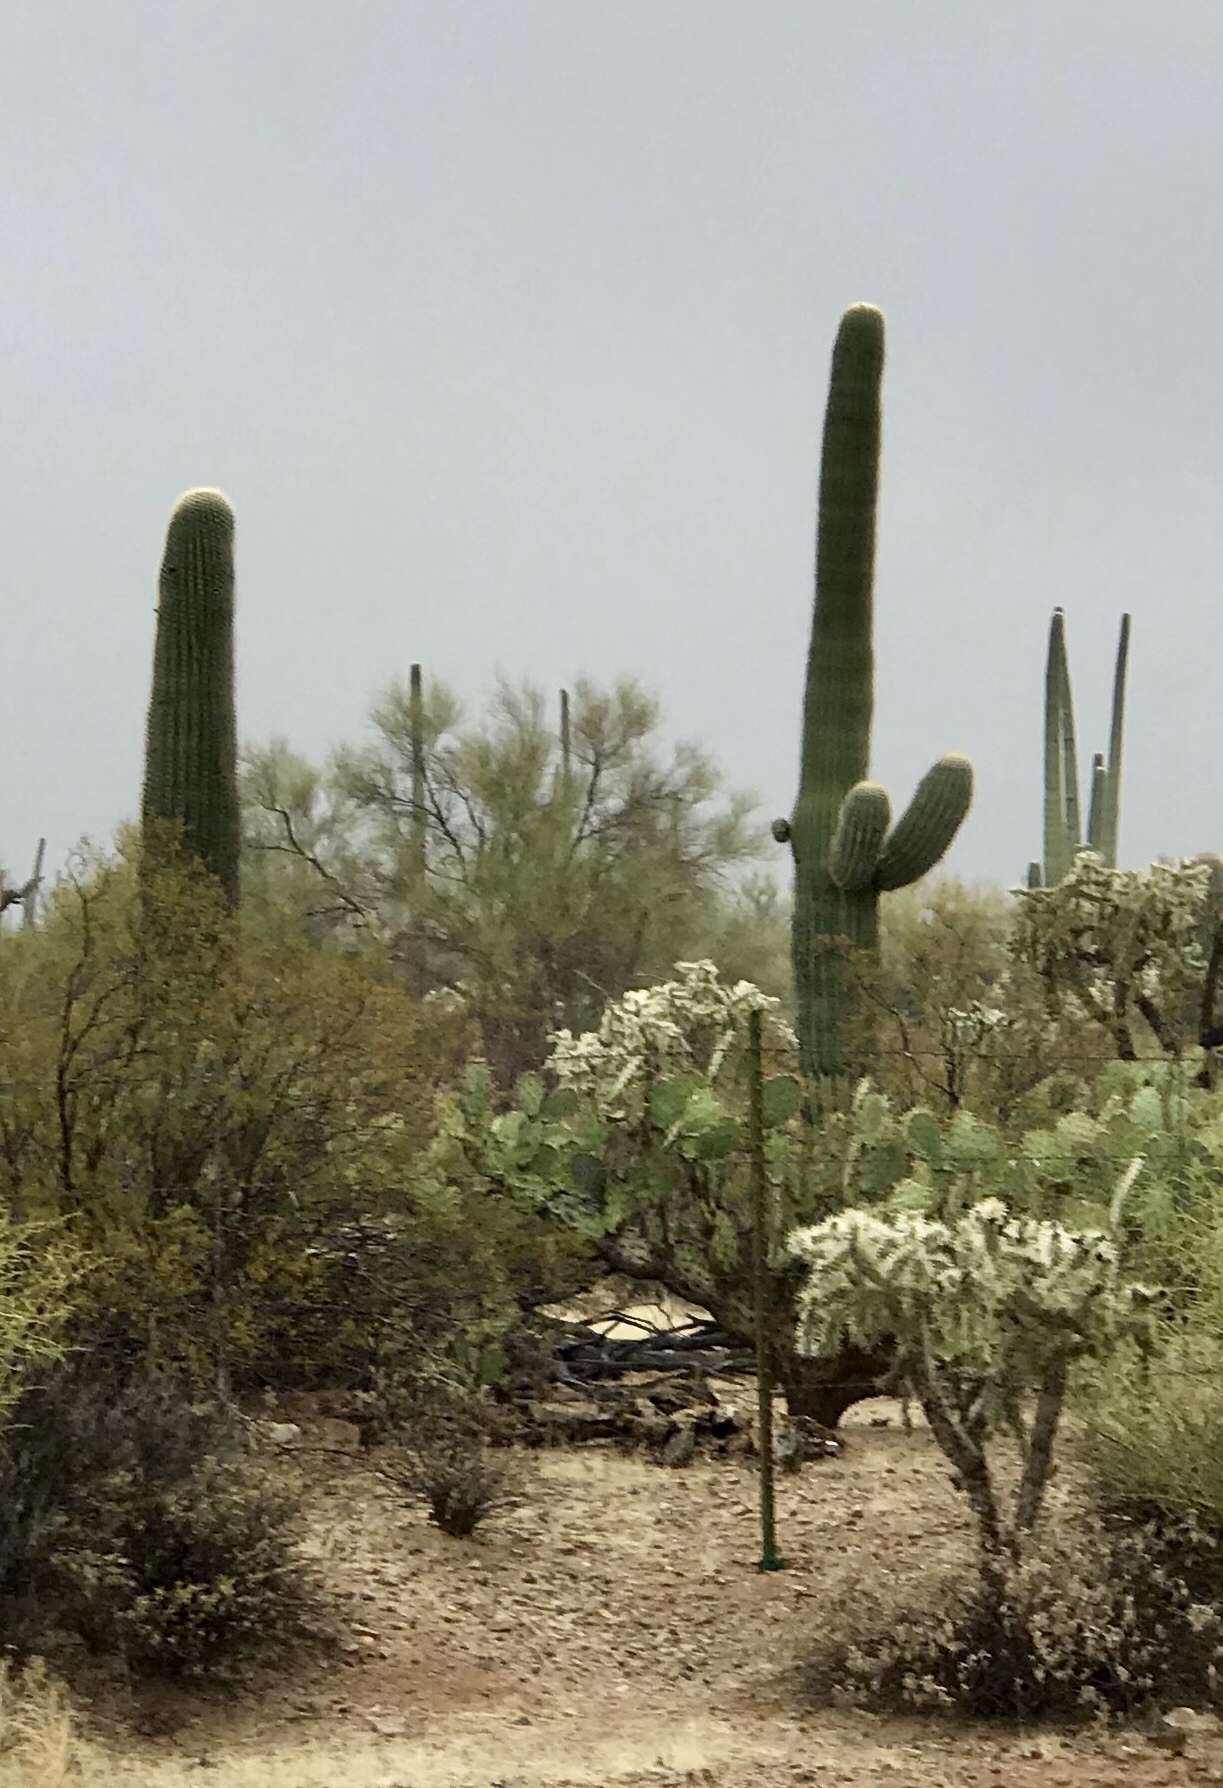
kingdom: Plantae
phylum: Tracheophyta
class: Magnoliopsida
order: Caryophyllales
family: Cactaceae
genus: Carnegiea
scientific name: Carnegiea gigantea
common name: Saguaro
